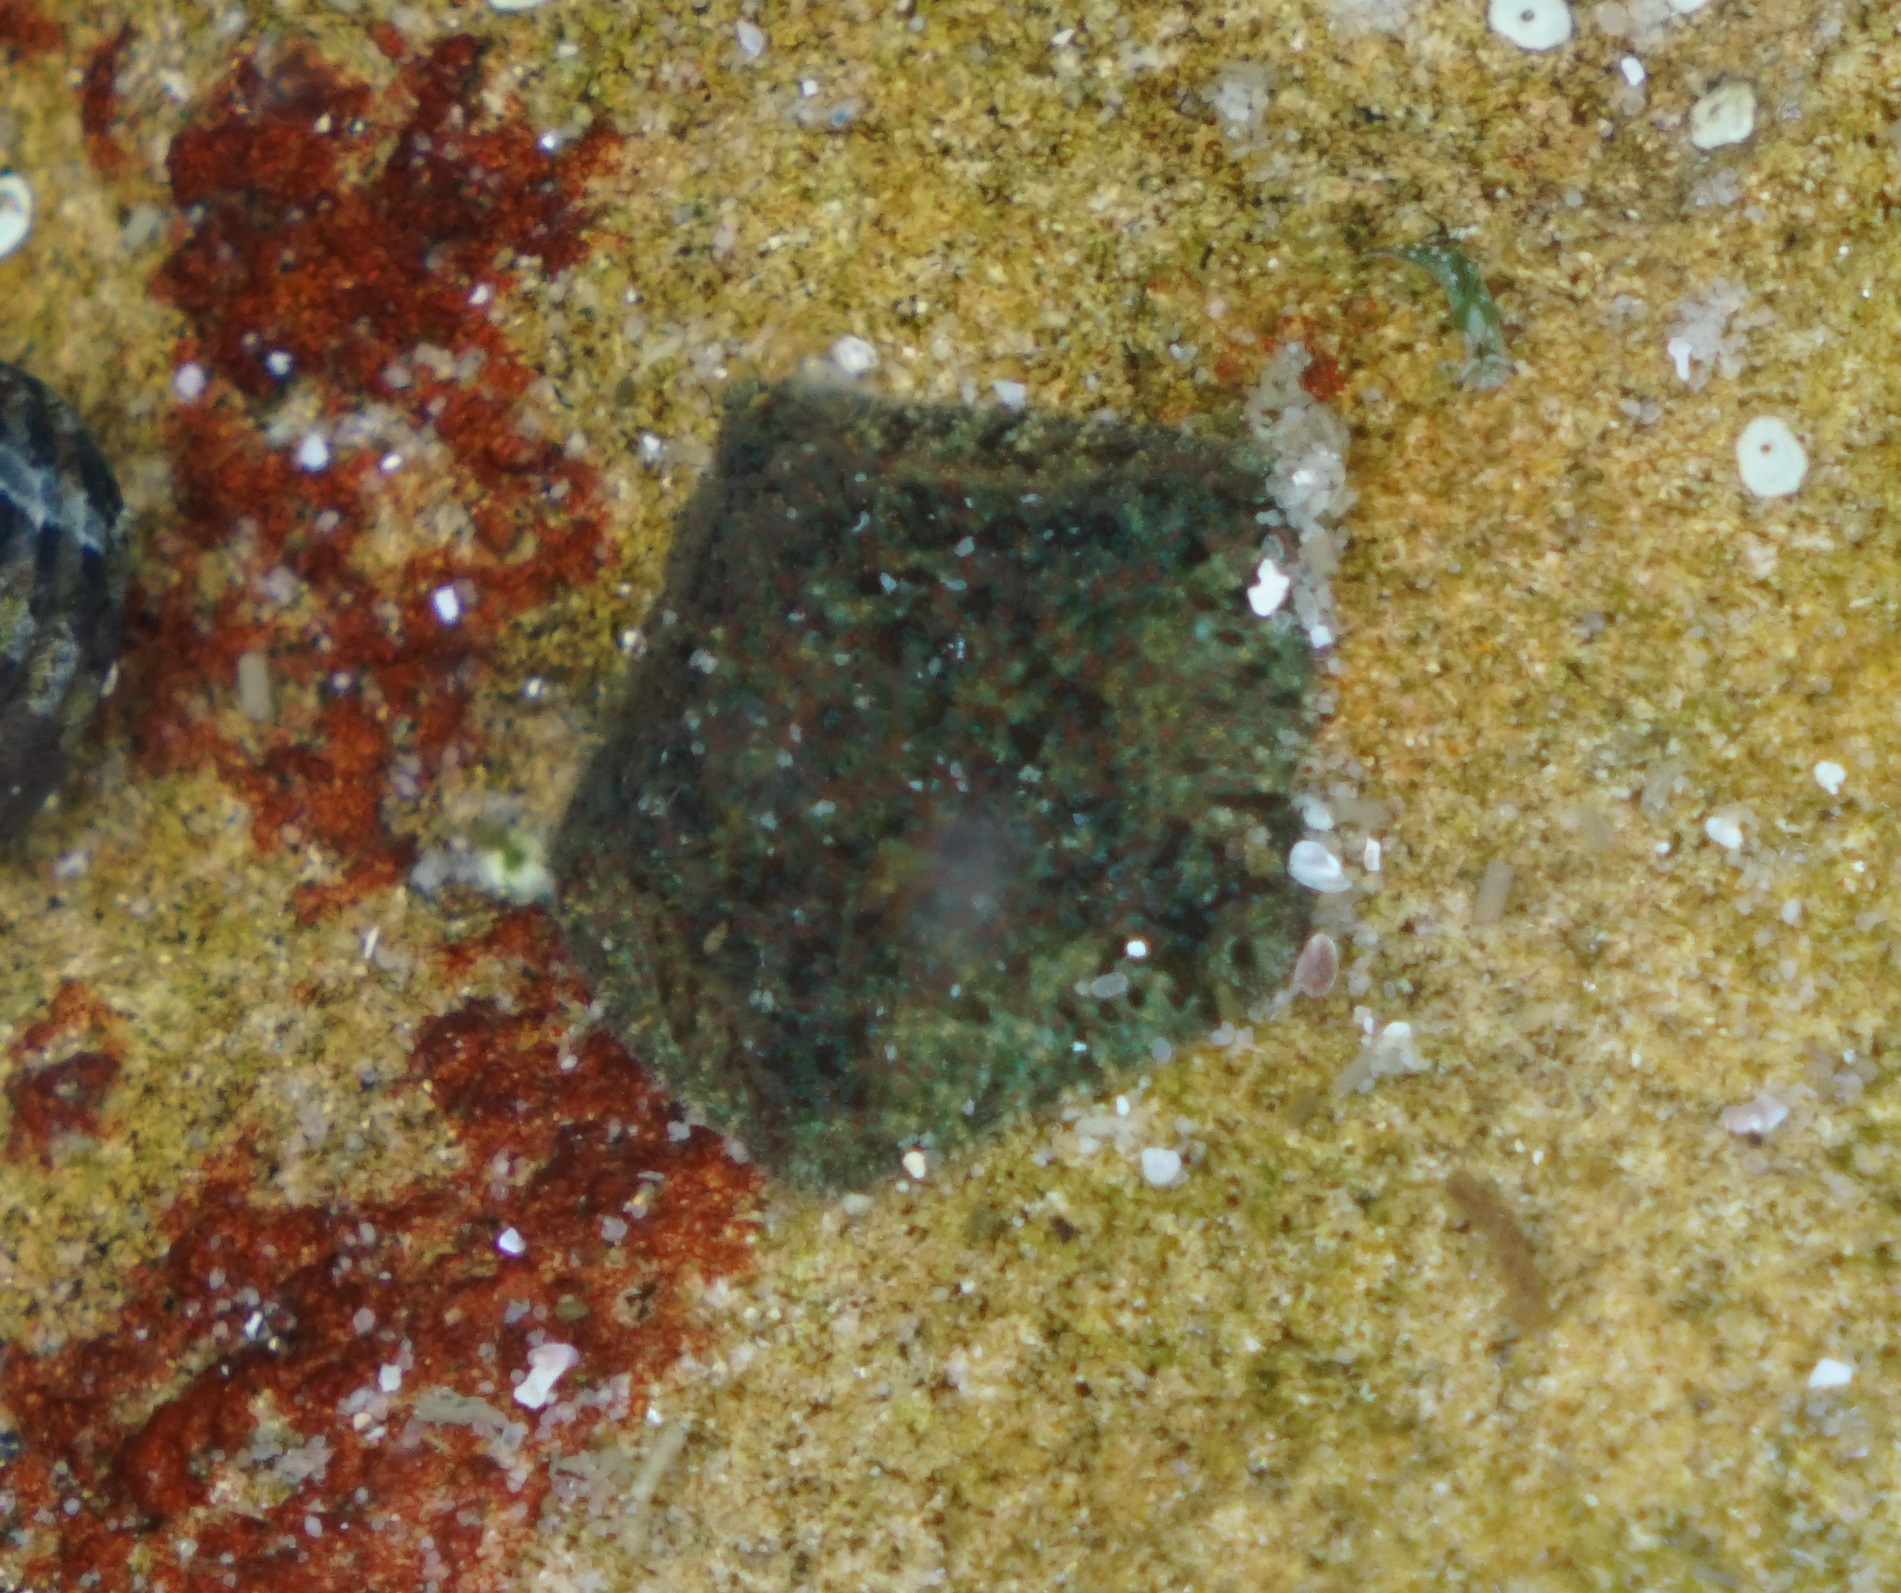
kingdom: Animalia
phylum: Echinodermata
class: Asteroidea
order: Valvatida
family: Asterinidae
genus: Parvulastra
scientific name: Parvulastra exigua
